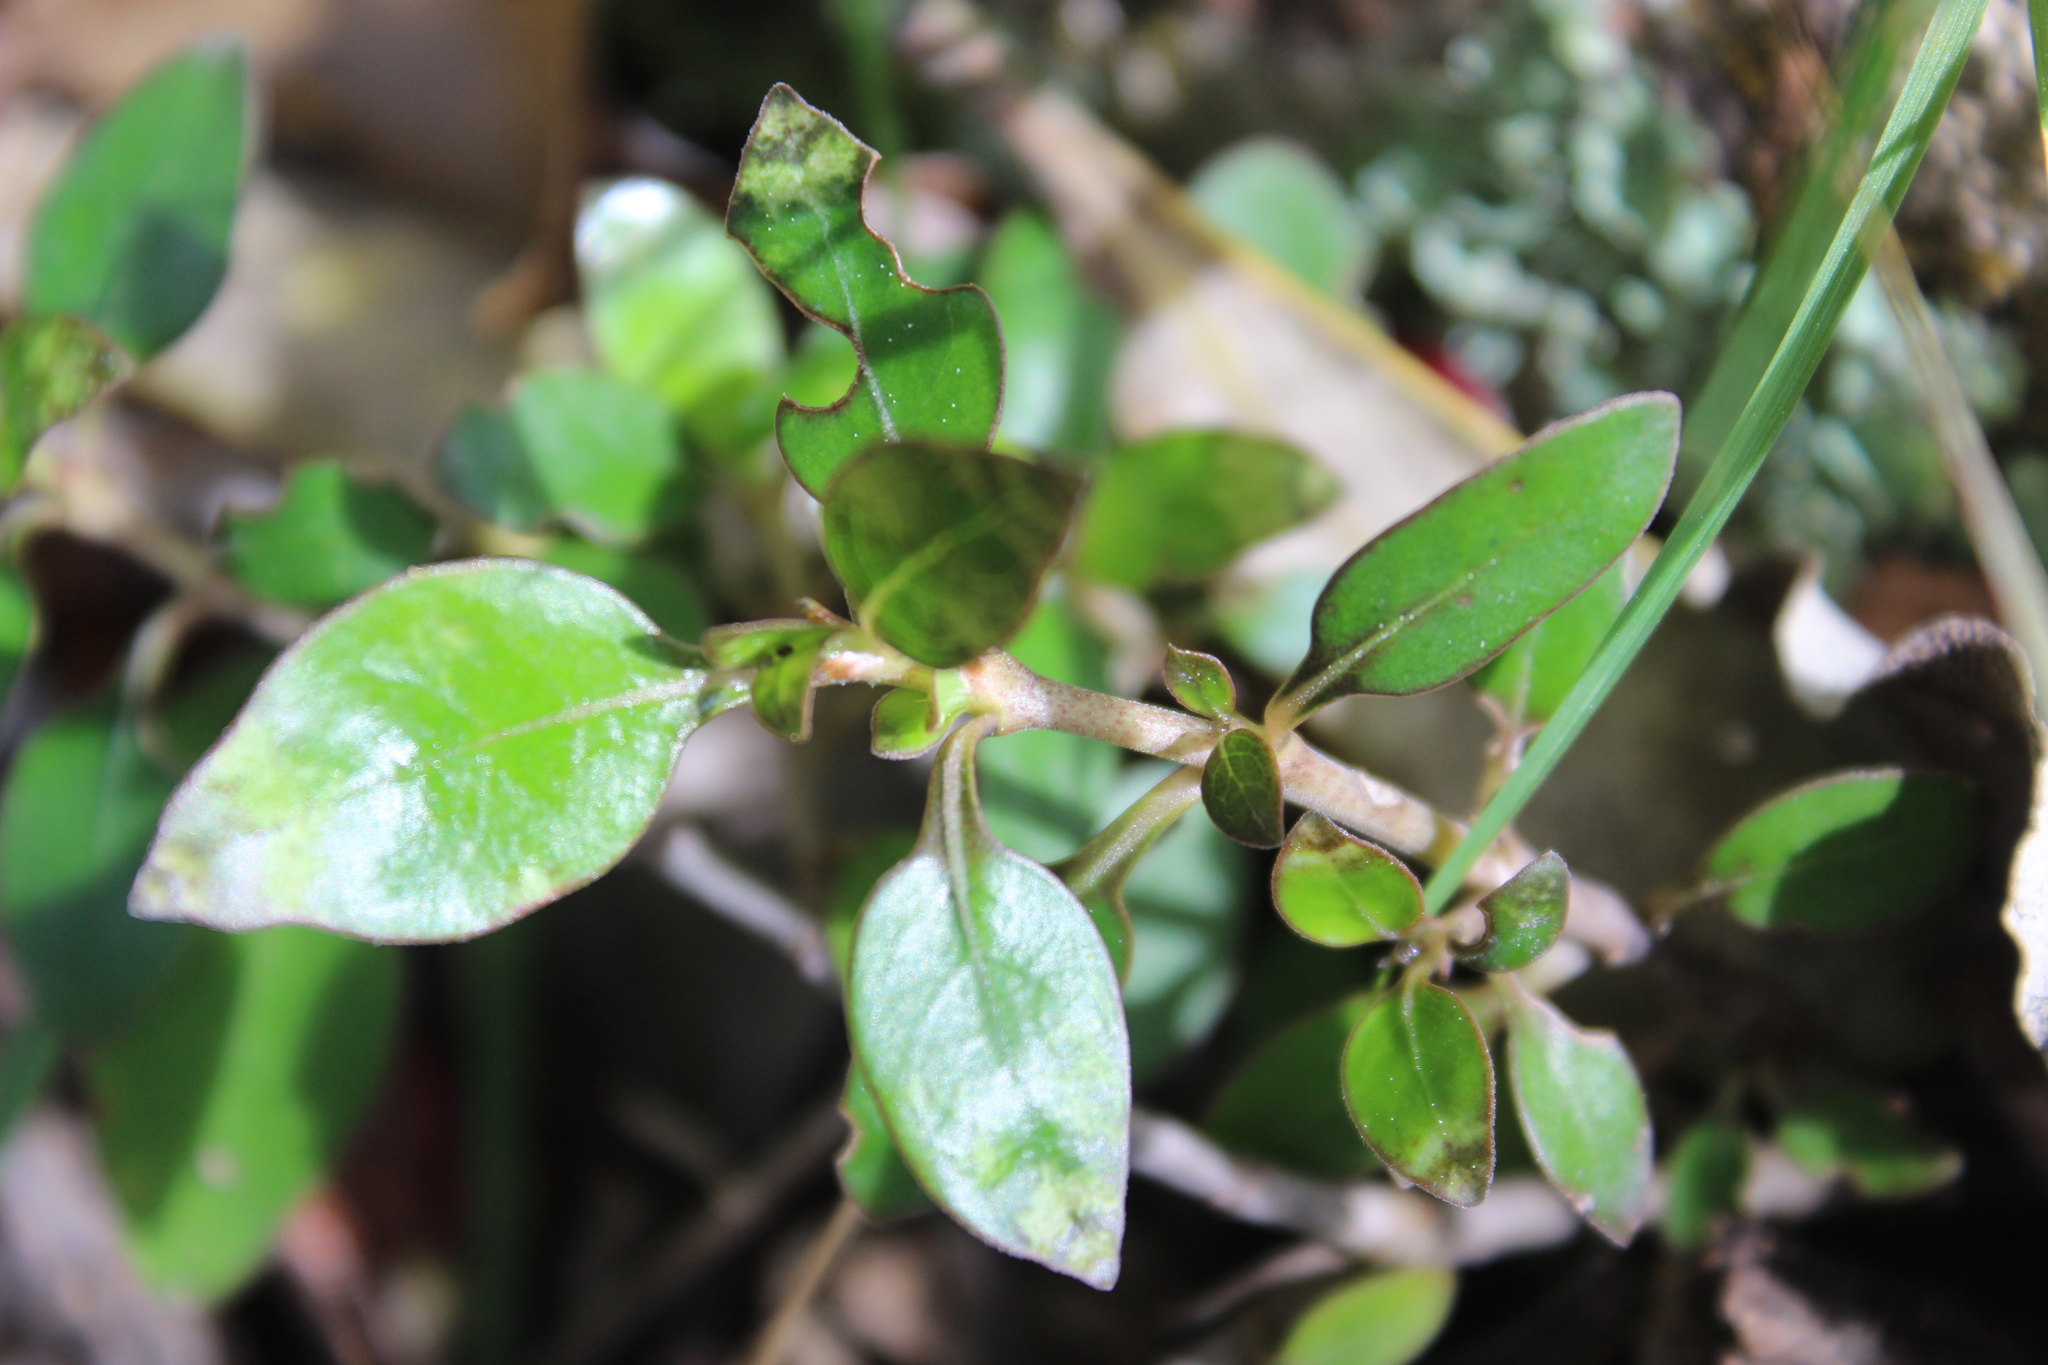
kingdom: Plantae
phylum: Tracheophyta
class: Magnoliopsida
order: Gentianales
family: Rubiaceae
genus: Coprosma
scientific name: Coprosma cunninghamii
